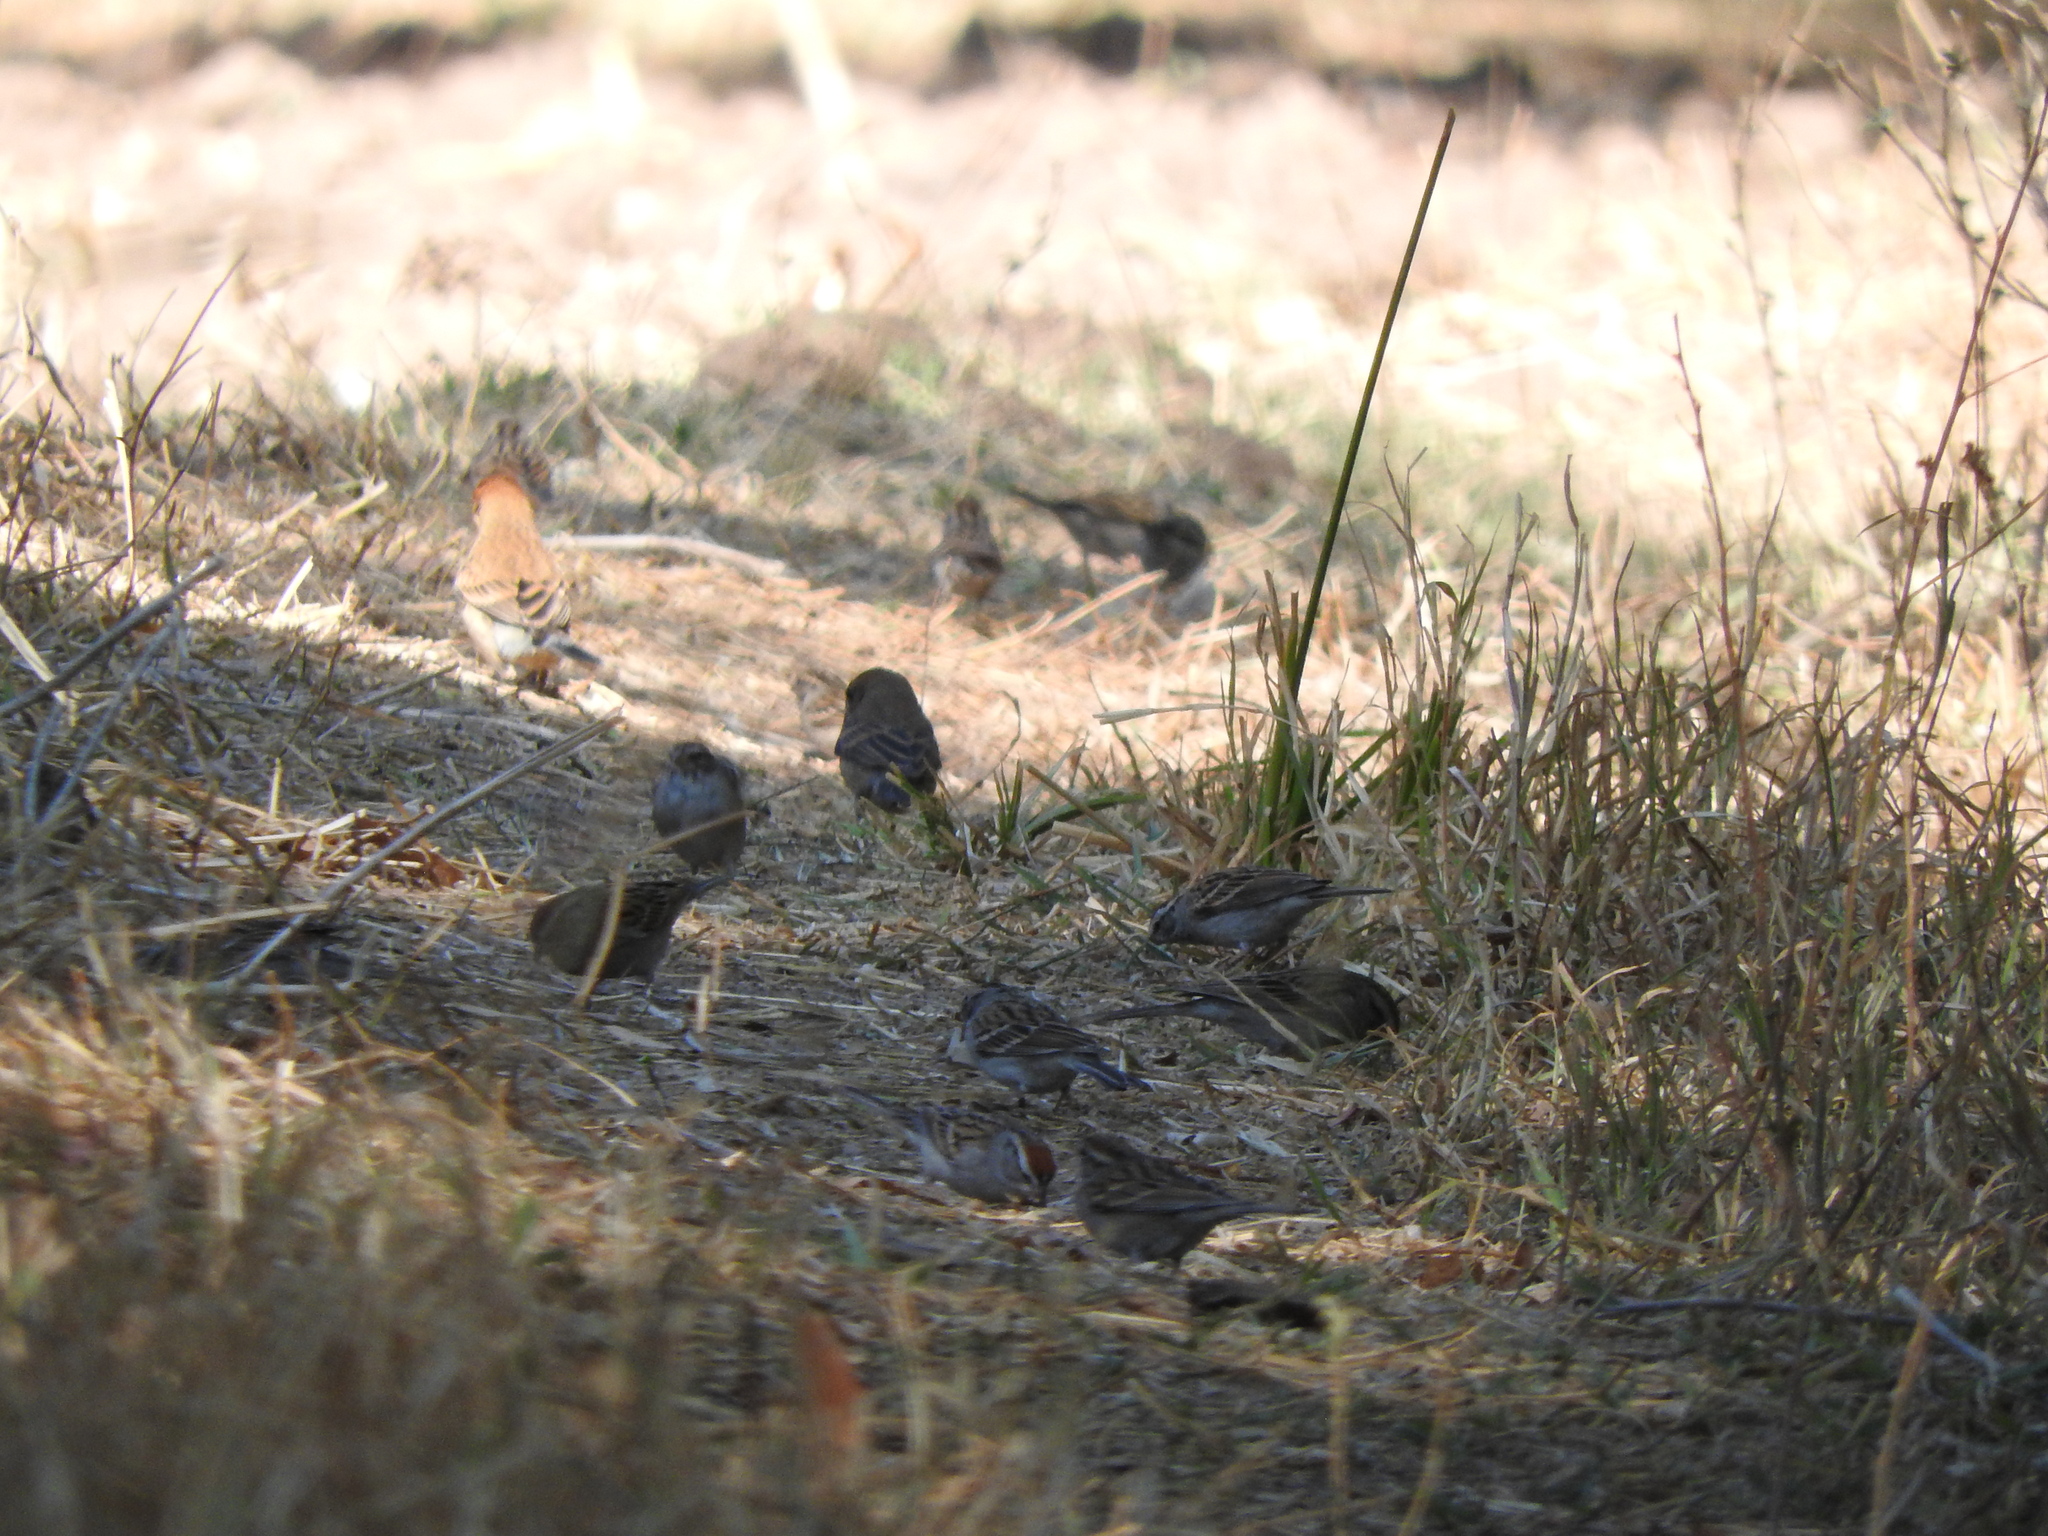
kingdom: Animalia
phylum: Chordata
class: Aves
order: Passeriformes
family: Passerellidae
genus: Spizella
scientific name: Spizella passerina
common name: Chipping sparrow
